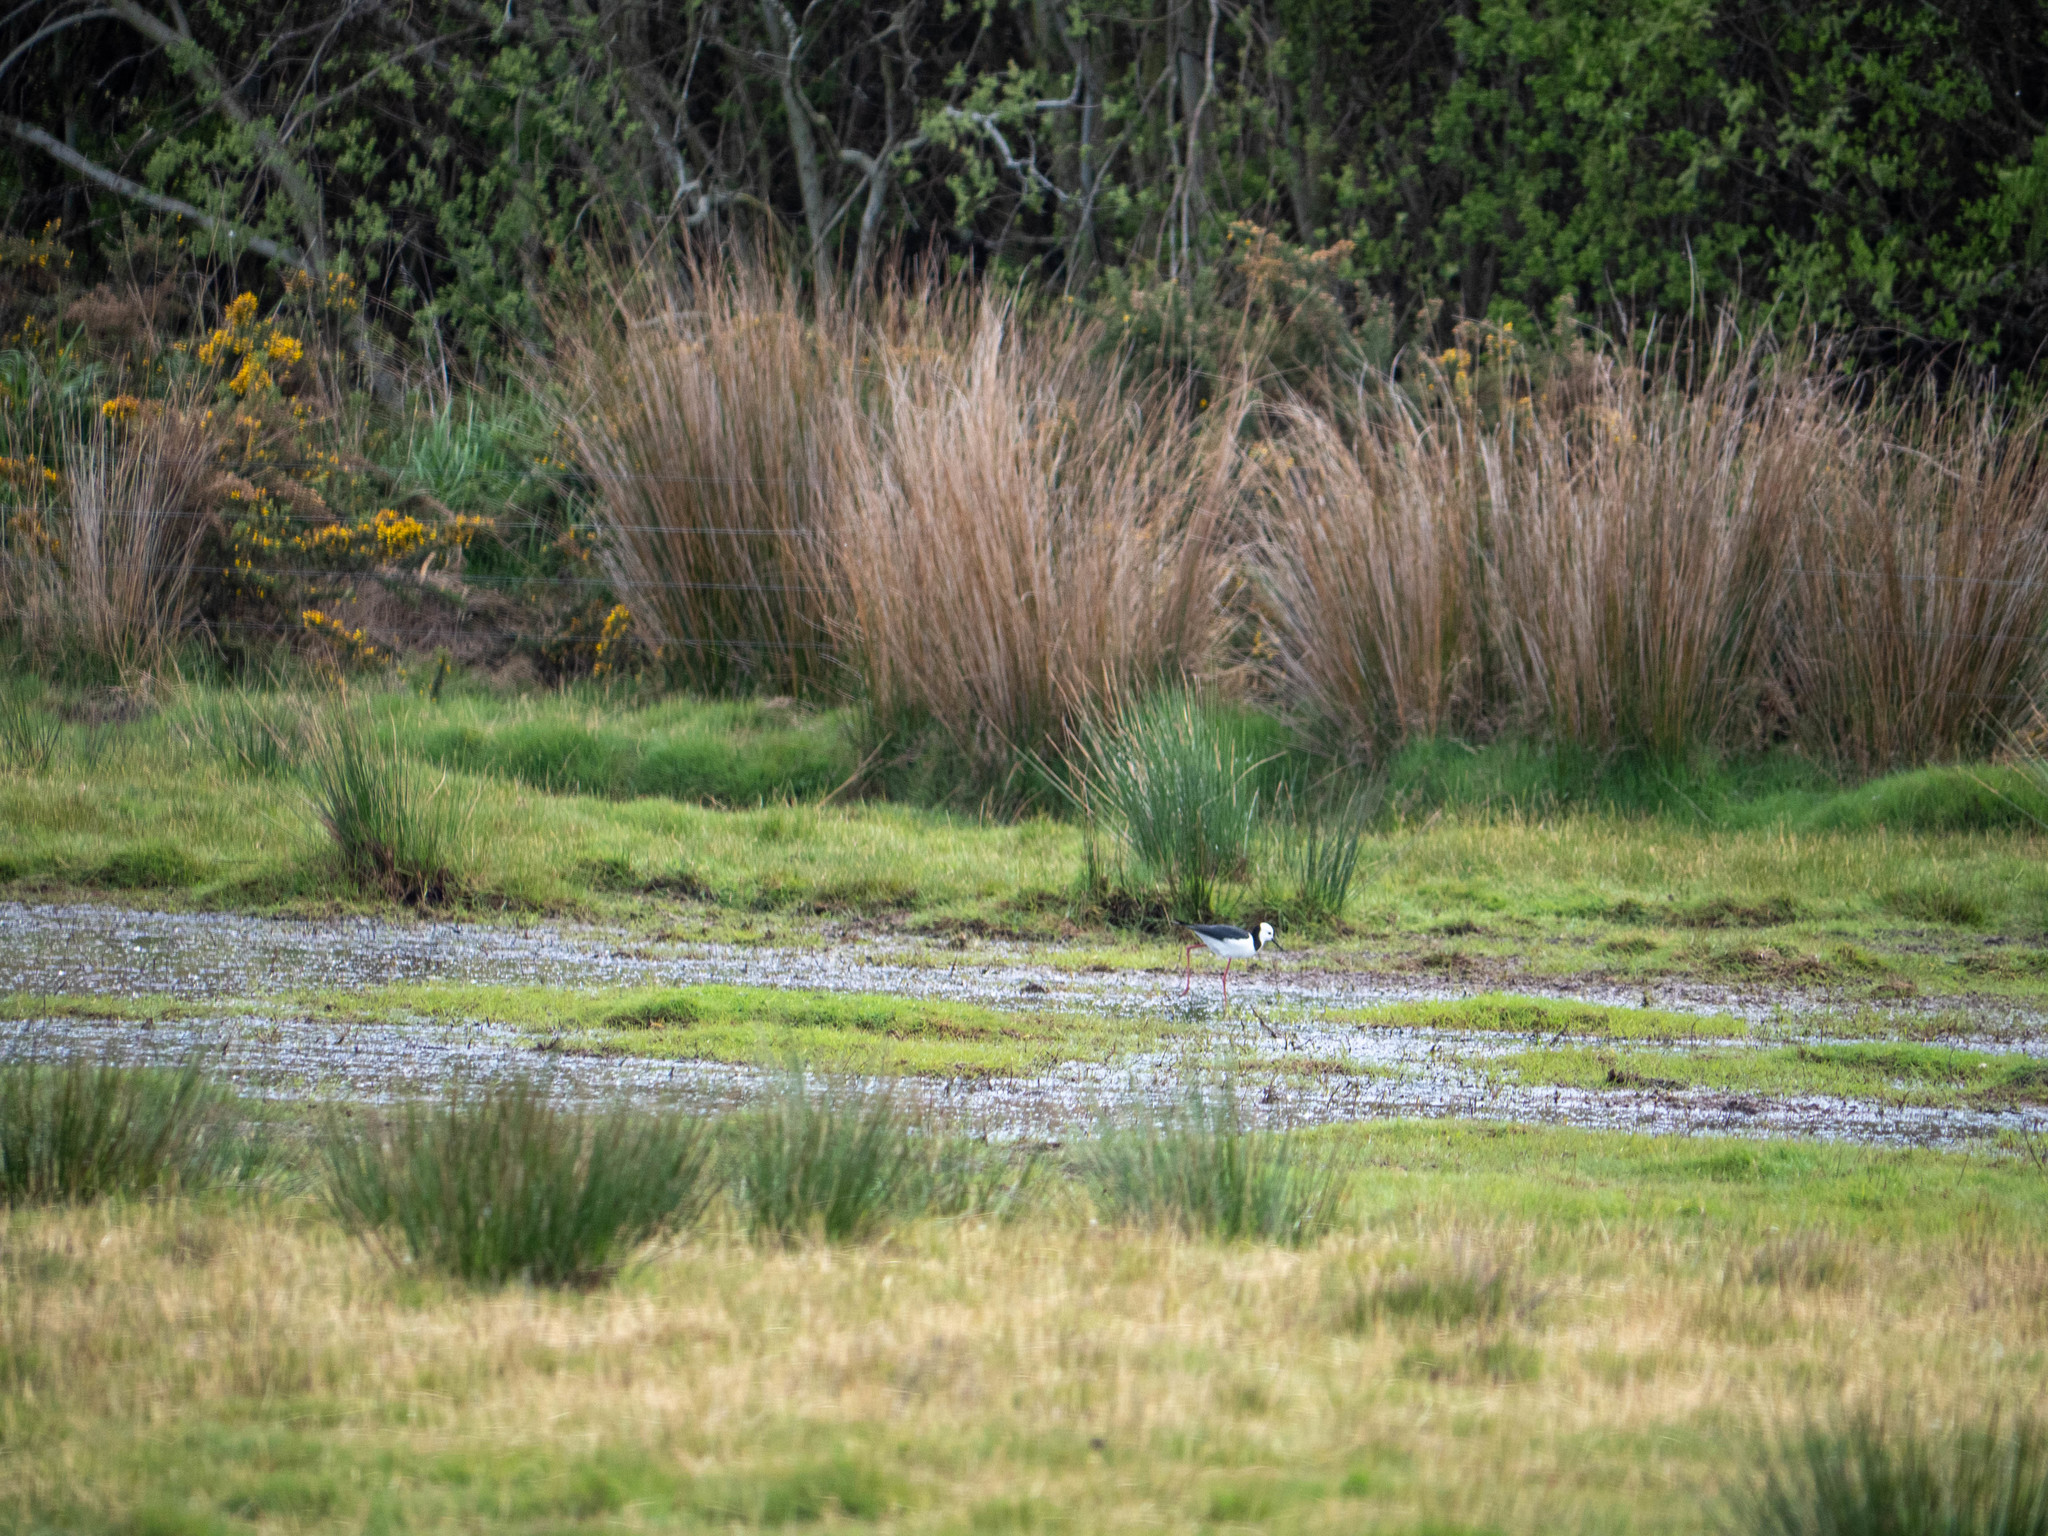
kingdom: Animalia
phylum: Chordata
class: Aves
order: Charadriiformes
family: Recurvirostridae
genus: Himantopus
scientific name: Himantopus leucocephalus
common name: White-headed stilt
